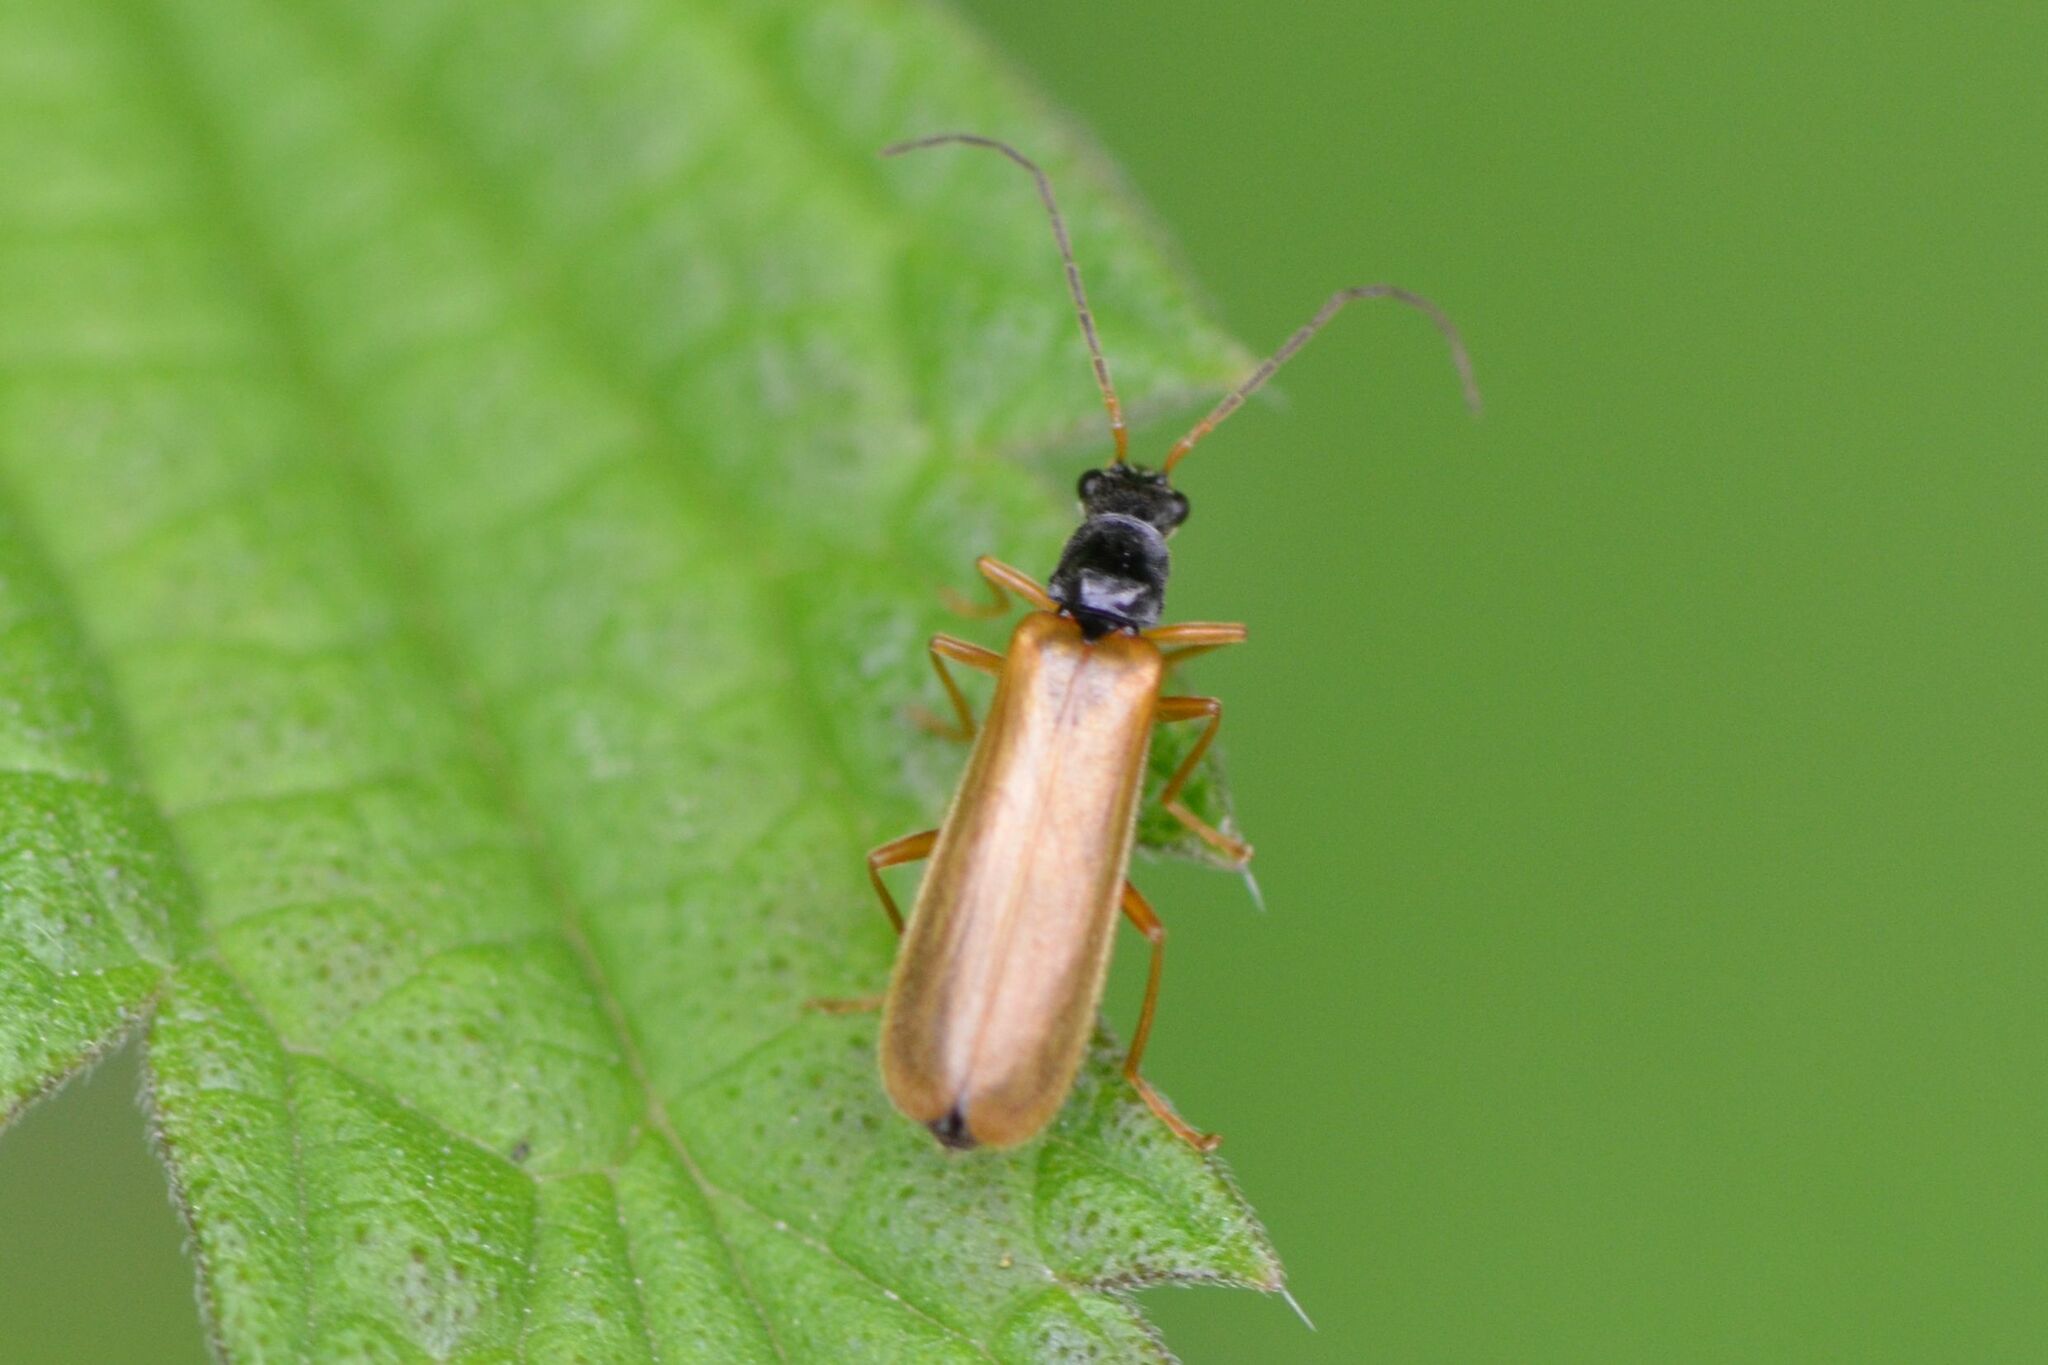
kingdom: Animalia
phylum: Arthropoda
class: Insecta
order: Coleoptera
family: Cantharidae
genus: Rhagonycha
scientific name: Rhagonycha lignosa
